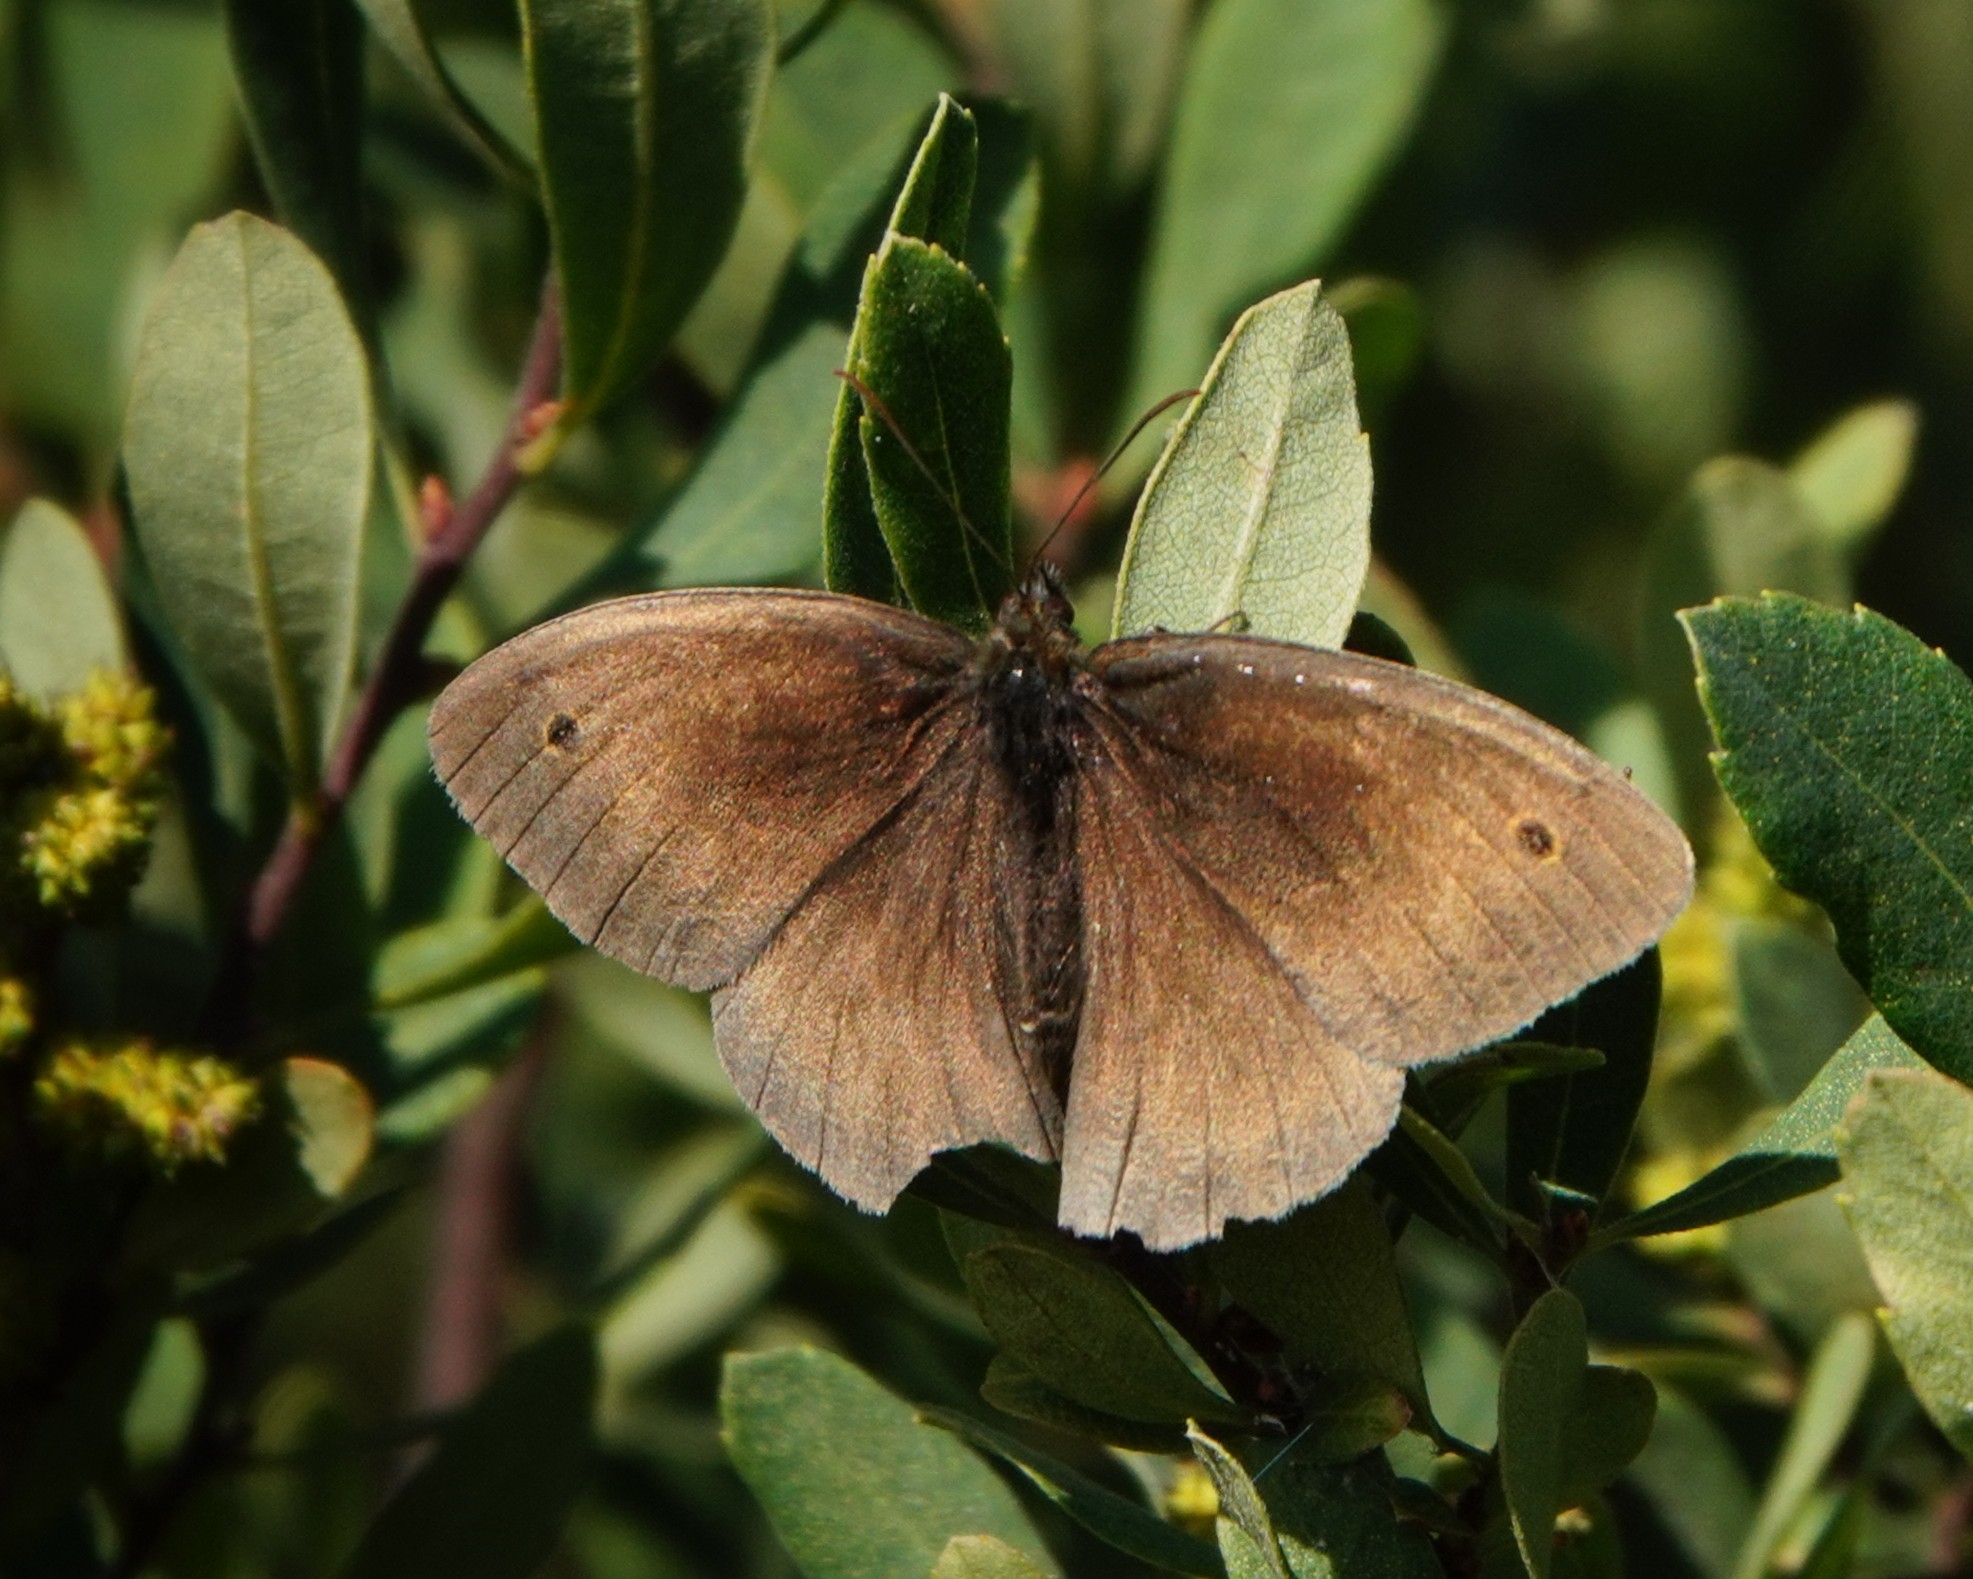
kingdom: Animalia
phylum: Arthropoda
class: Insecta
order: Lepidoptera
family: Nymphalidae
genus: Maniola
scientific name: Maniola jurtina
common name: Meadow brown
